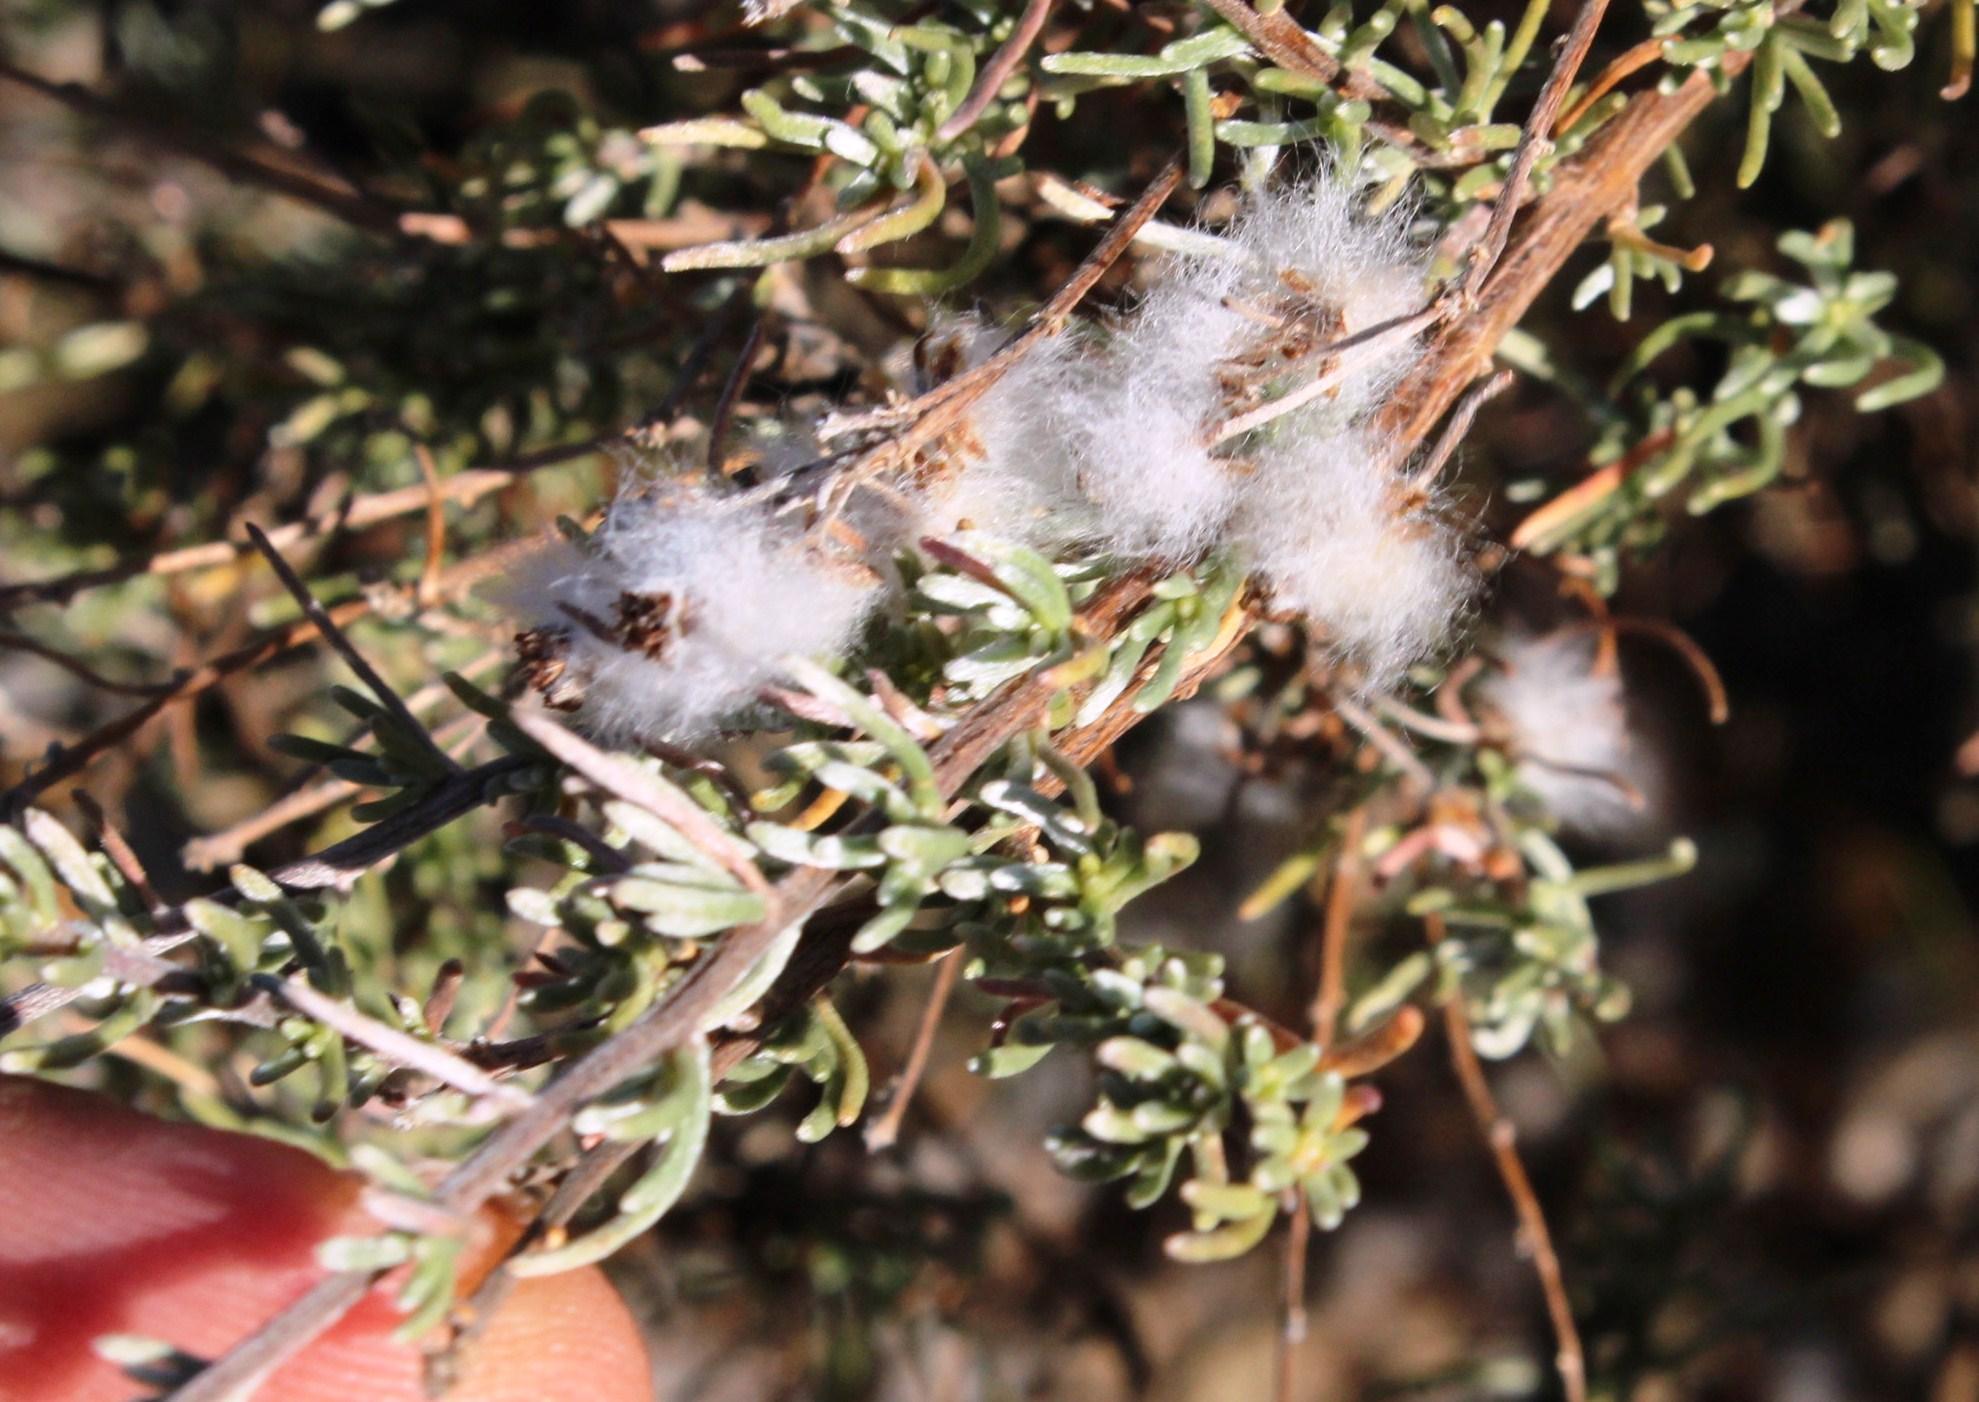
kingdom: Plantae
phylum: Tracheophyta
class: Magnoliopsida
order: Asterales
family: Asteraceae
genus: Eriocephalus
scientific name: Eriocephalus africanus
